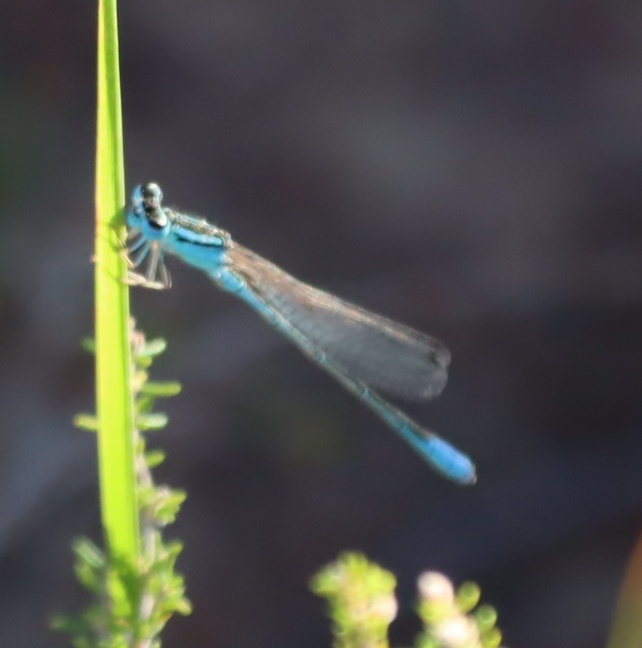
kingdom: Animalia
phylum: Arthropoda
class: Insecta
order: Odonata
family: Coenagrionidae
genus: Africallagma
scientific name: Africallagma glaucum
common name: Swamp bluet
